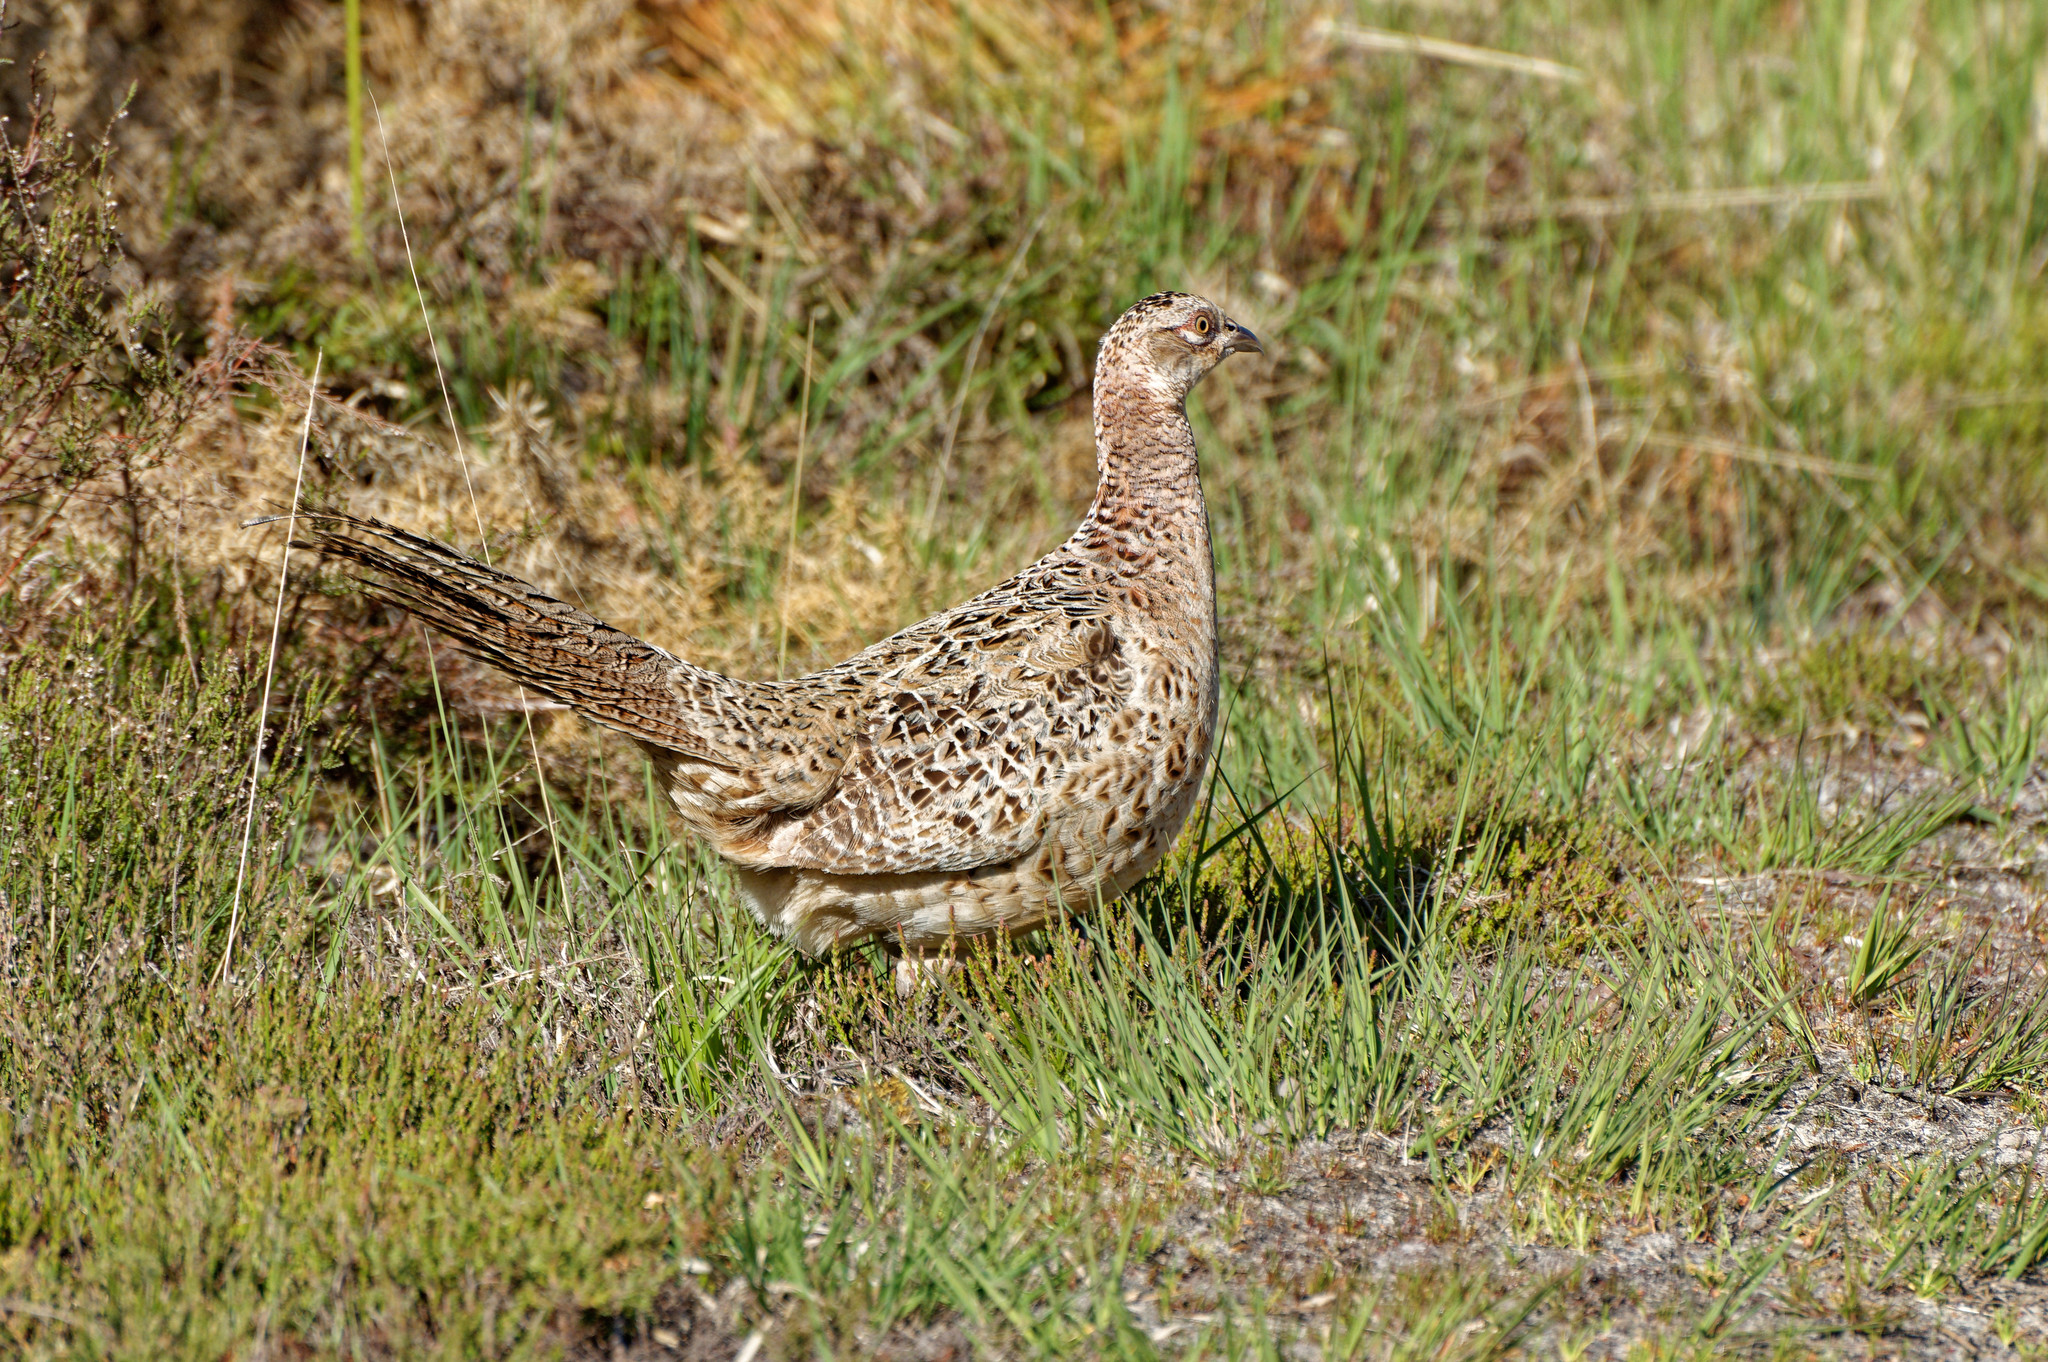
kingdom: Animalia
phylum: Chordata
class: Aves
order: Galliformes
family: Phasianidae
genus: Phasianus
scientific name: Phasianus colchicus
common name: Common pheasant
